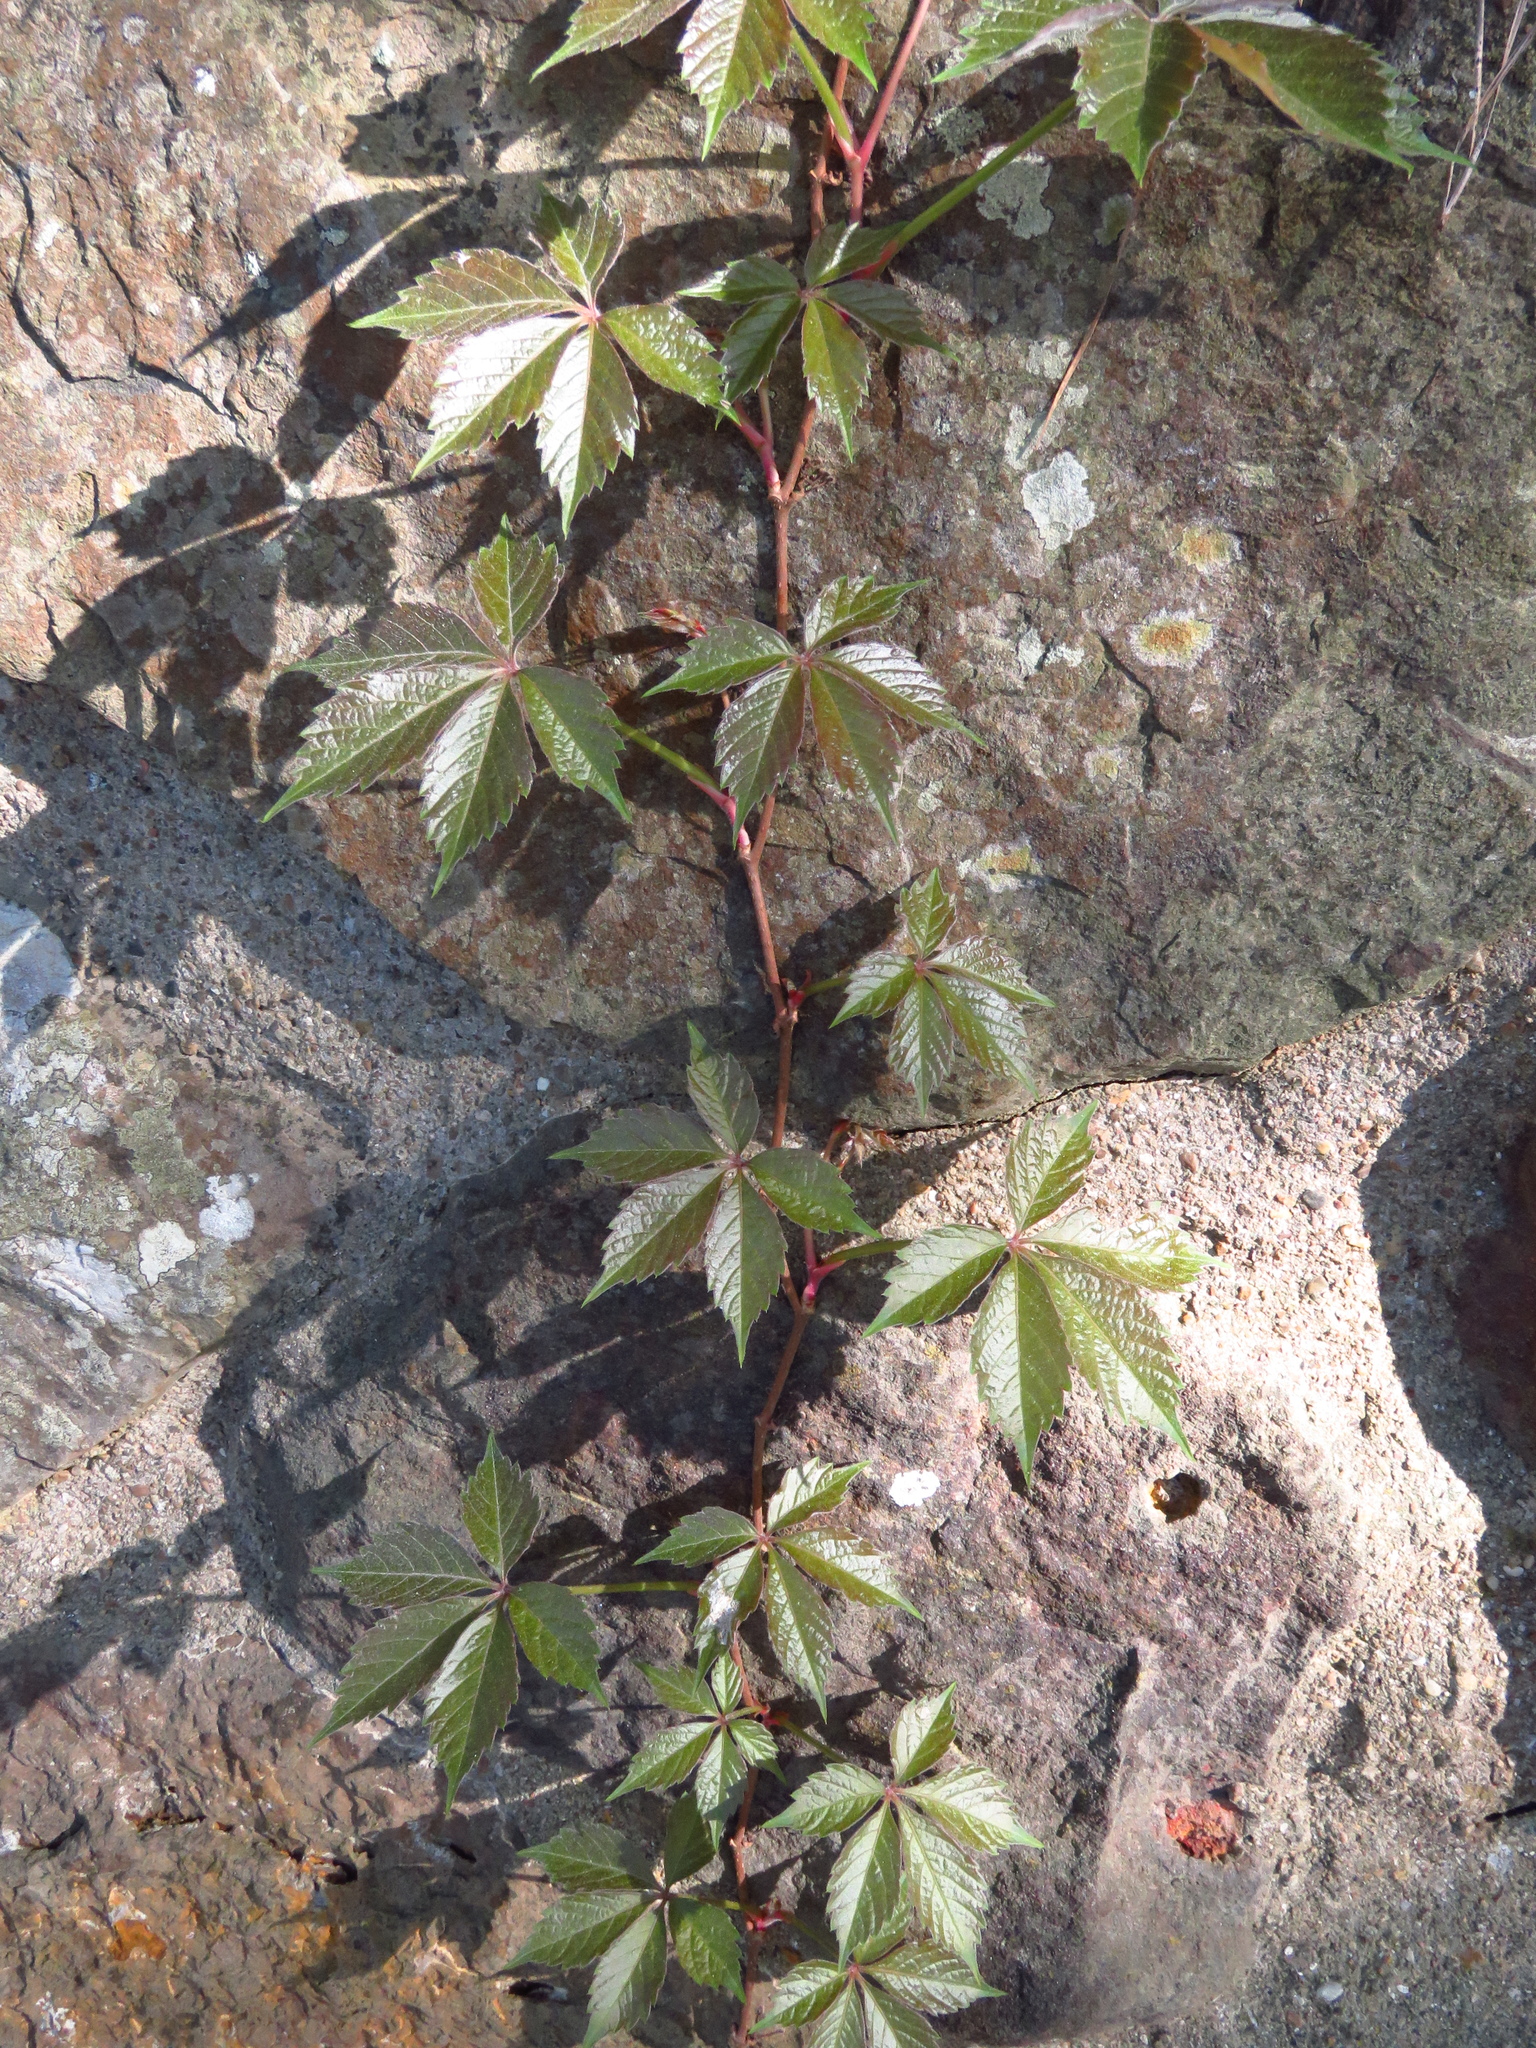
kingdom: Plantae
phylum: Tracheophyta
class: Magnoliopsida
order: Vitales
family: Vitaceae
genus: Parthenocissus
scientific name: Parthenocissus quinquefolia
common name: Virginia-creeper
